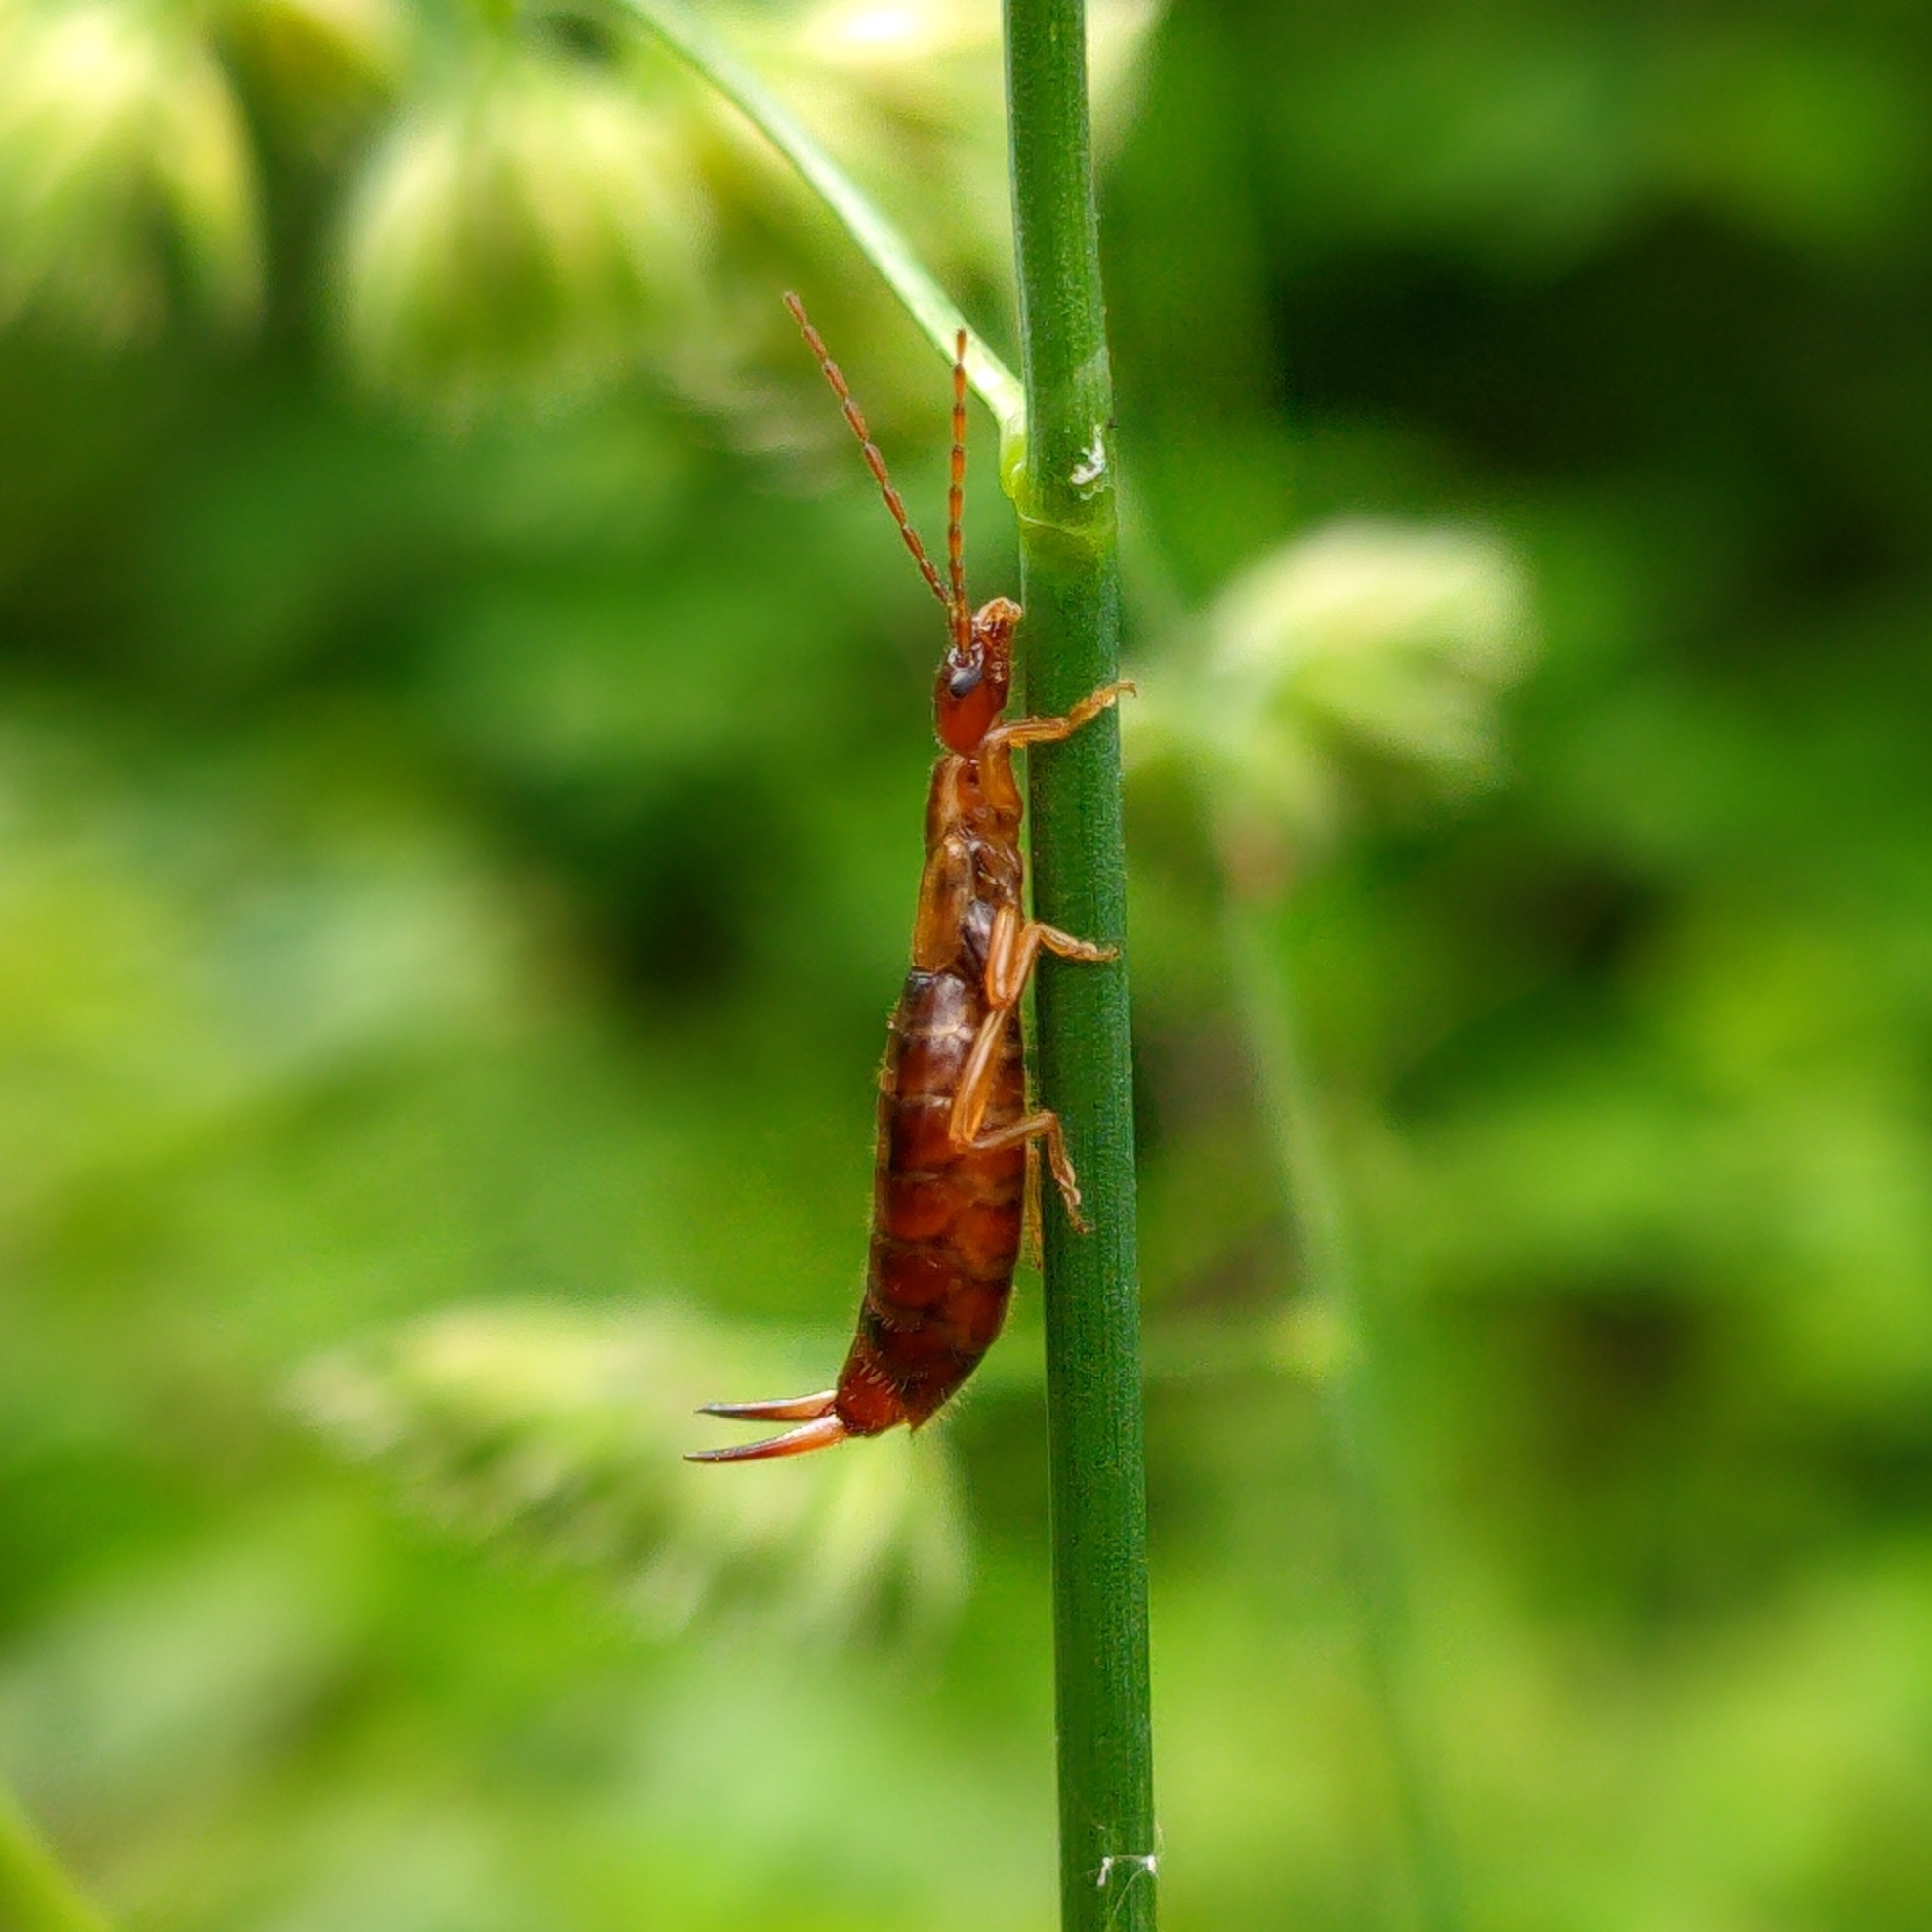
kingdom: Animalia
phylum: Arthropoda
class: Insecta
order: Dermaptera
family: Forficulidae
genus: Apterygida
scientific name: Apterygida albipennis
